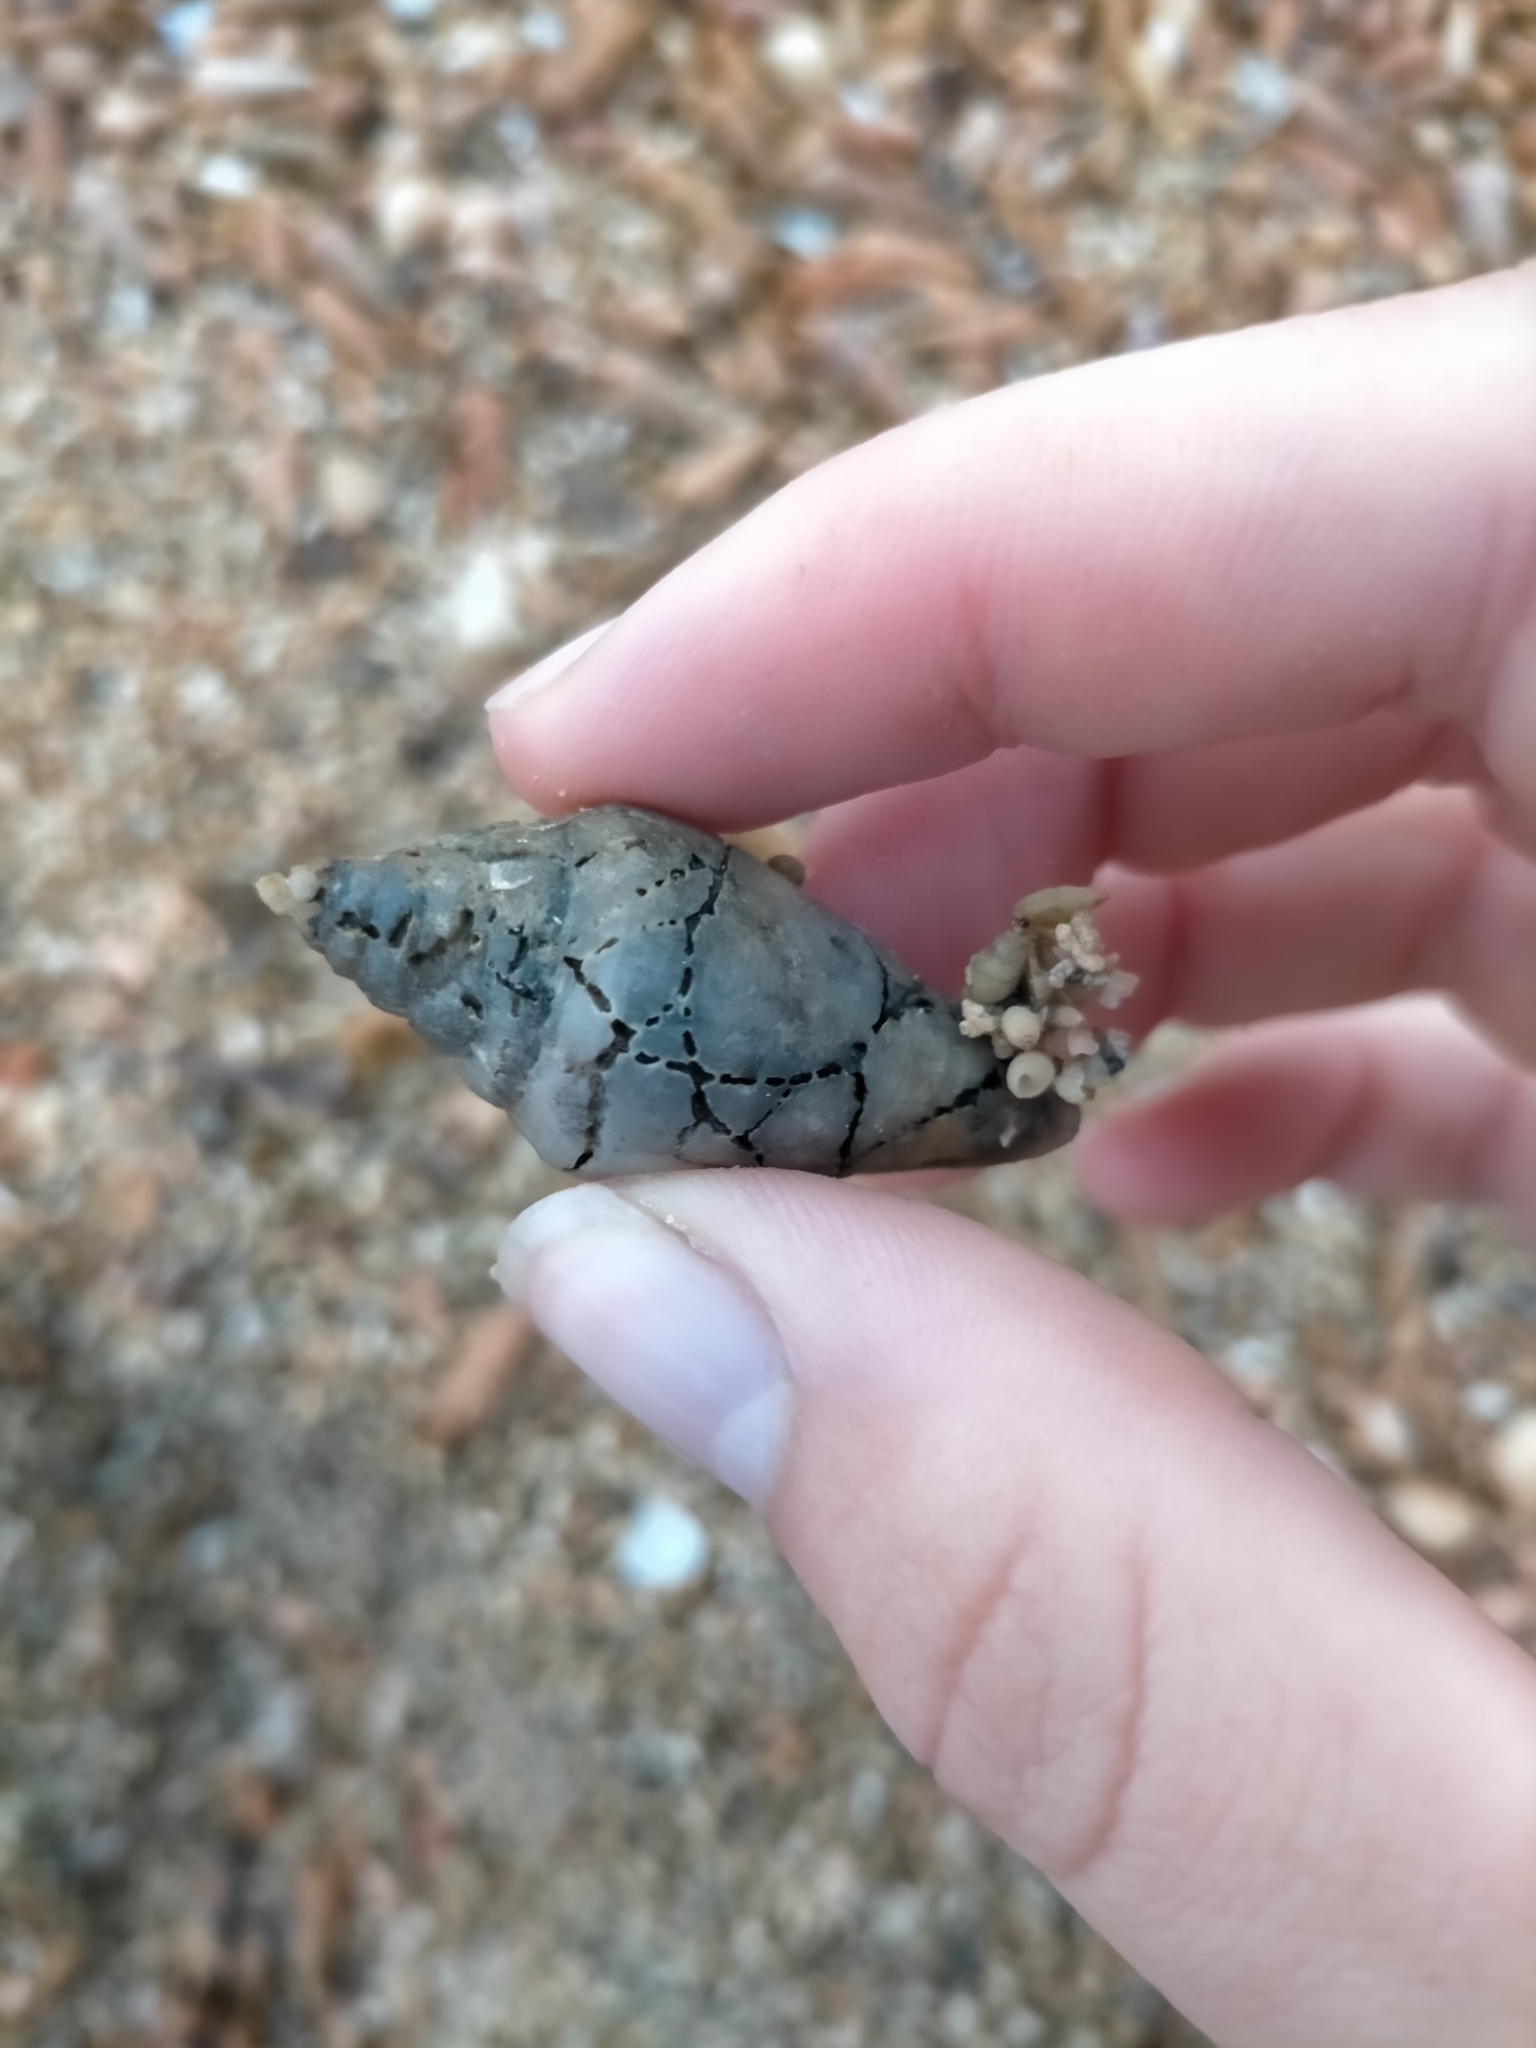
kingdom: Animalia
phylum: Mollusca
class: Gastropoda
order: Neogastropoda
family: Conidae
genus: Conus
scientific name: Conus compressus
